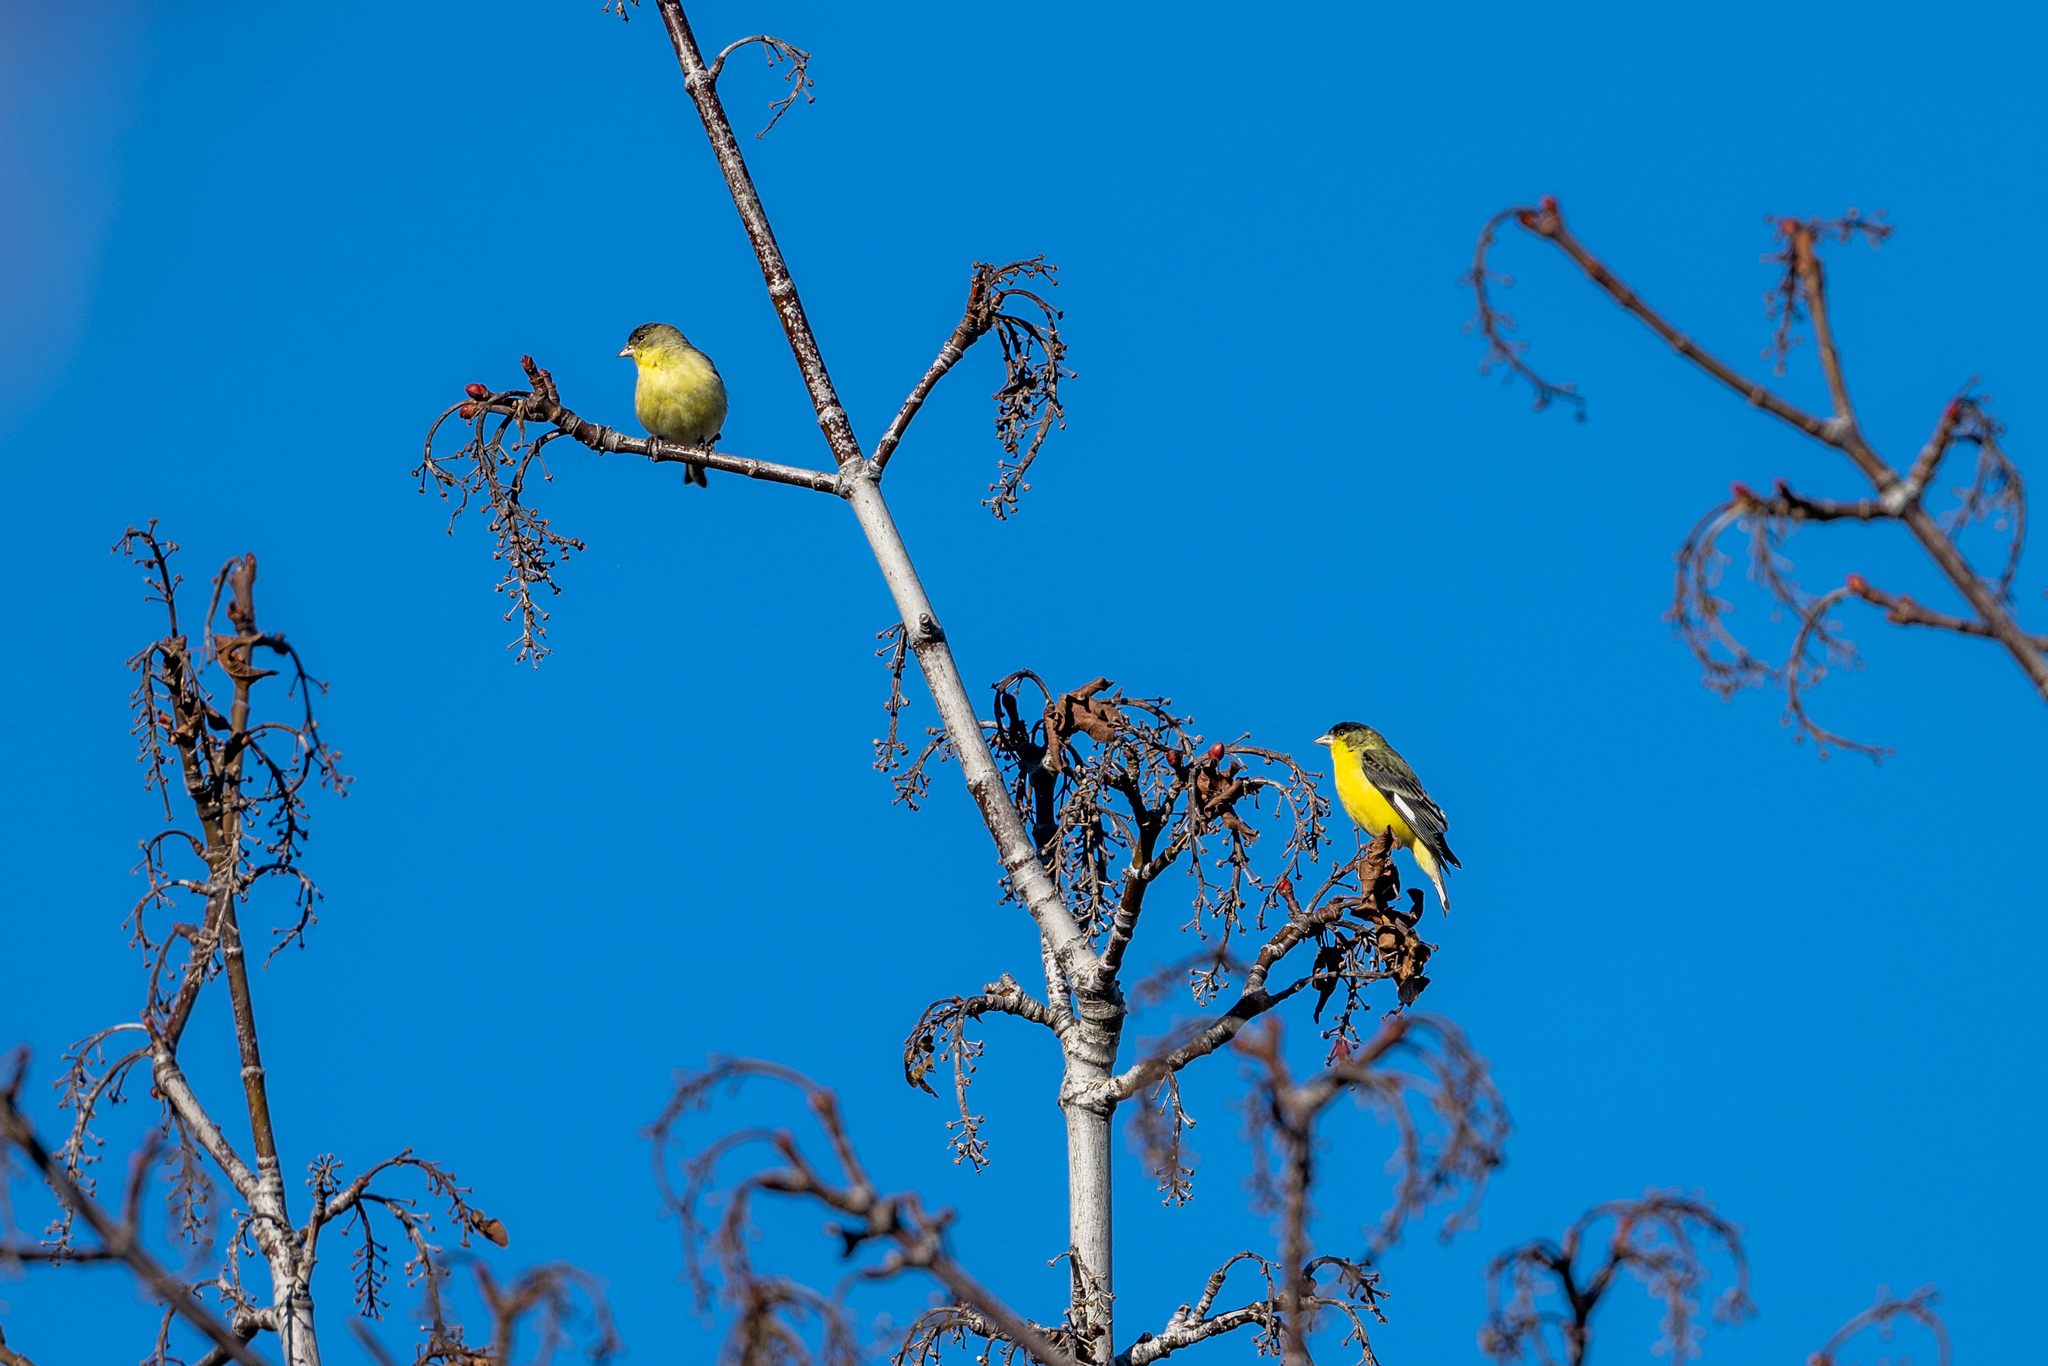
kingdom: Animalia
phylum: Chordata
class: Aves
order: Passeriformes
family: Fringillidae
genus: Spinus
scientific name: Spinus psaltria
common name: Lesser goldfinch
